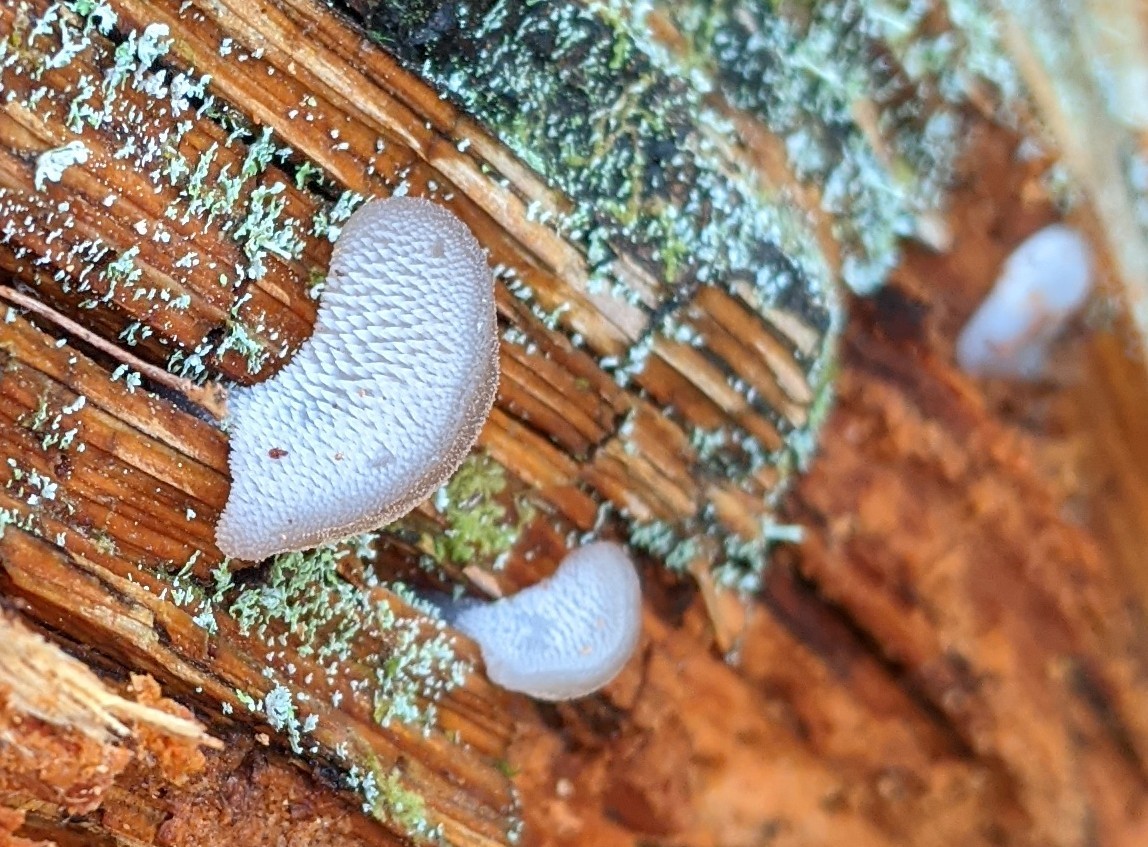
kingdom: Fungi
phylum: Basidiomycota
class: Agaricomycetes
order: Auriculariales
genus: Pseudohydnum
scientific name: Pseudohydnum gelatinosum
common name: Jelly tongue
